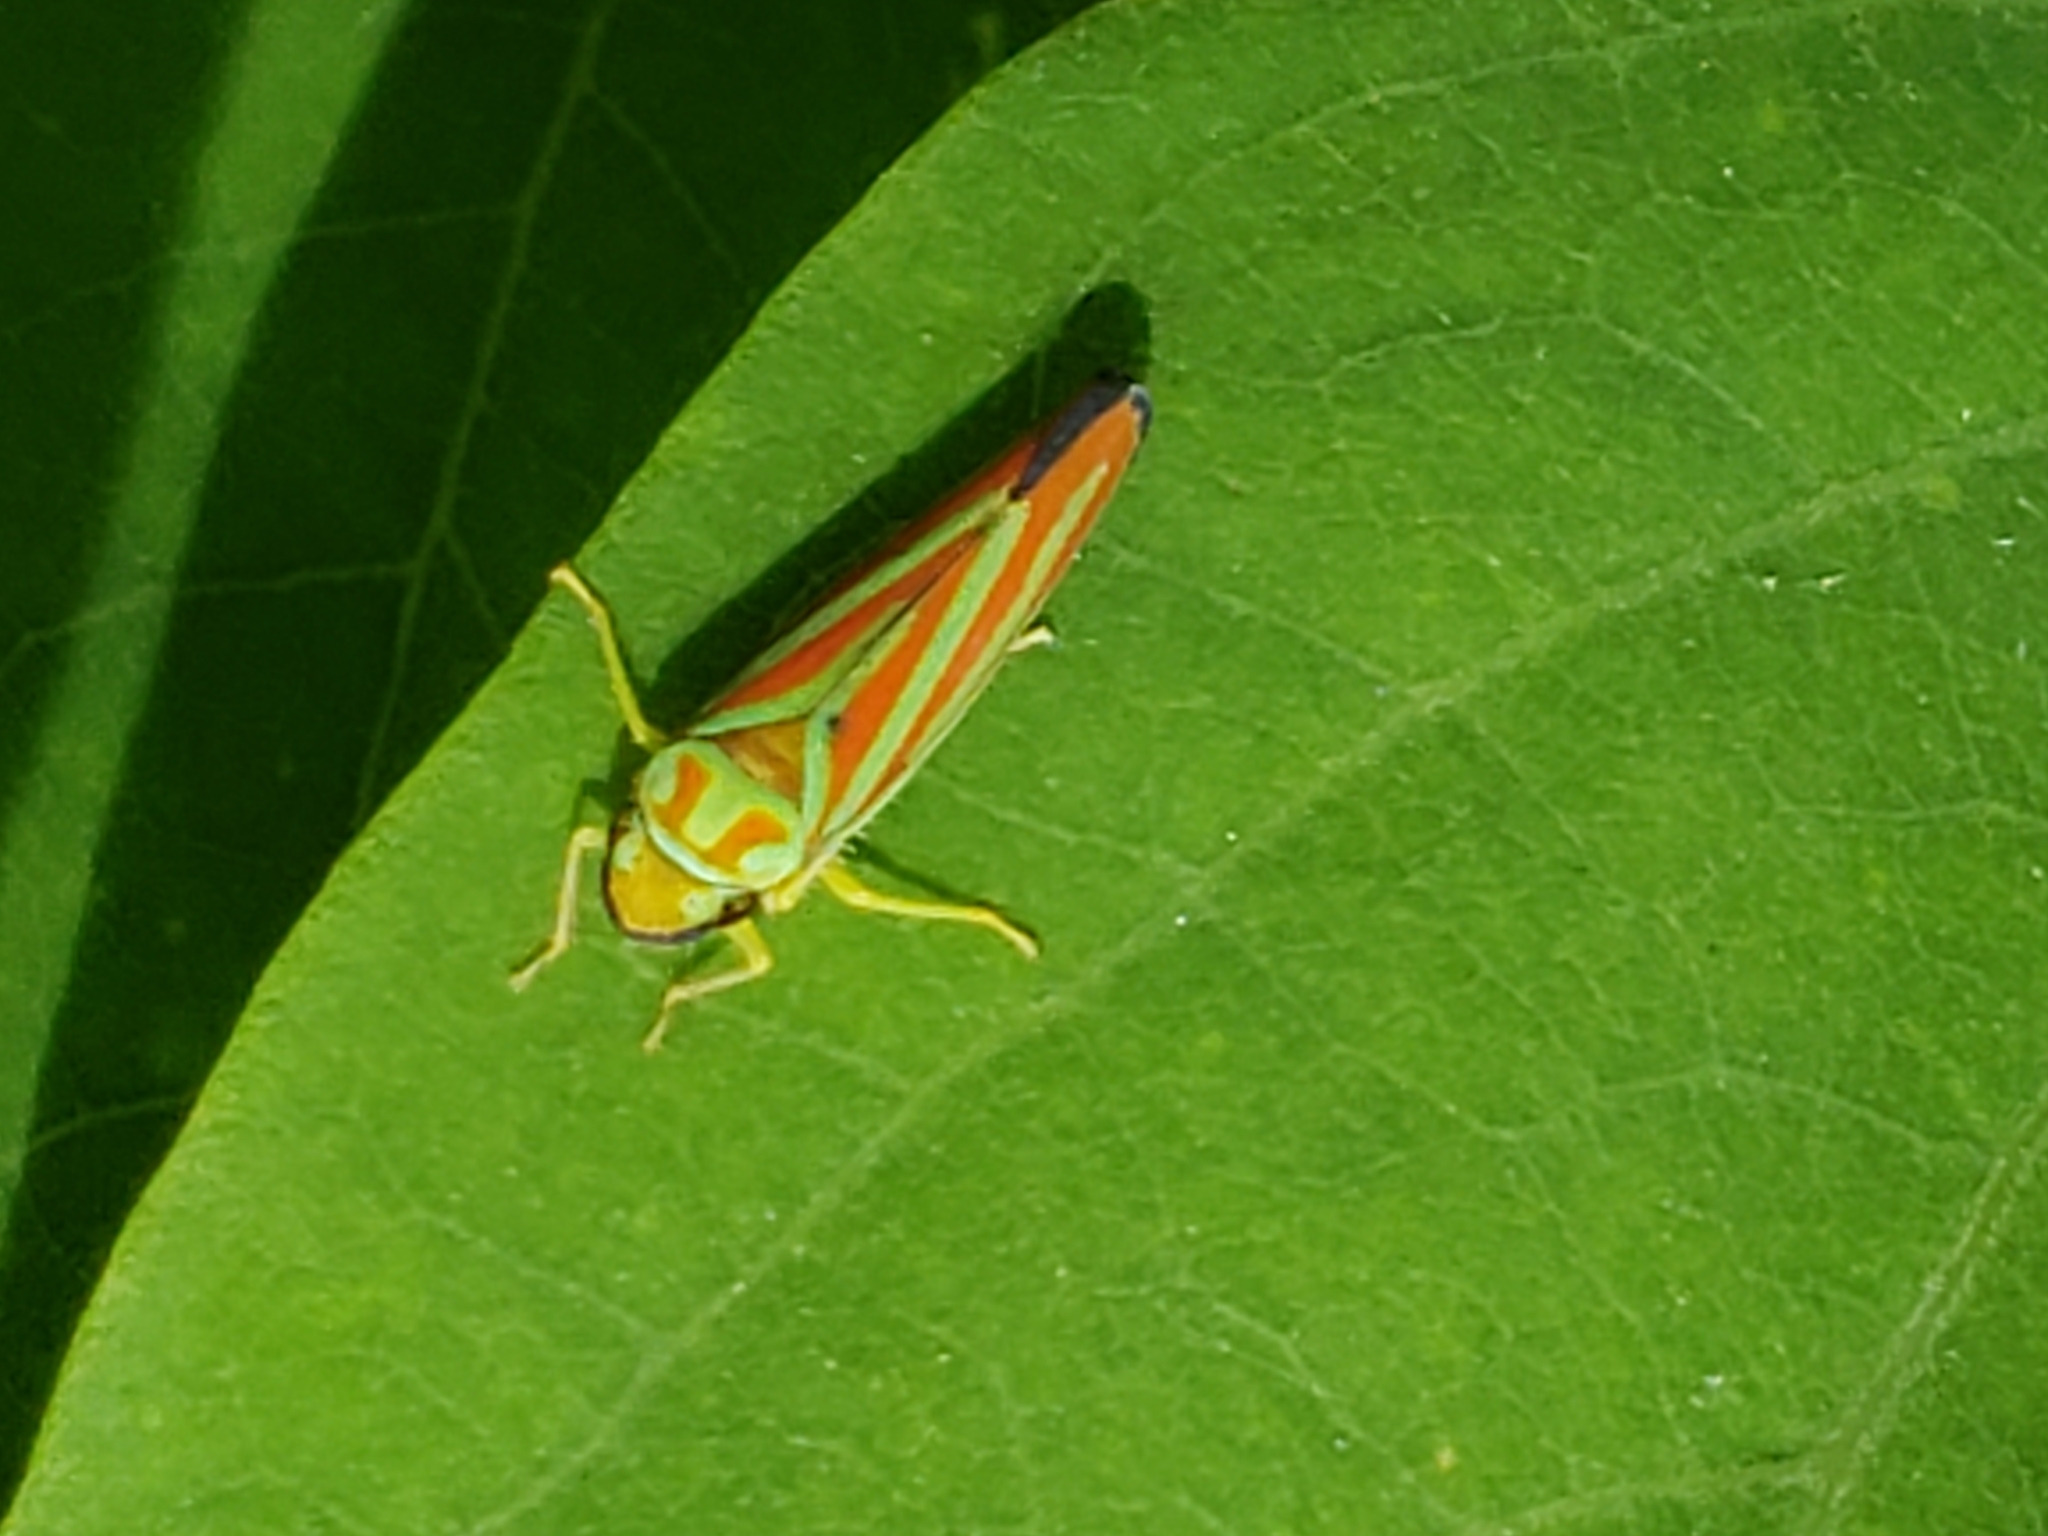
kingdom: Animalia
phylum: Arthropoda
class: Insecta
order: Hemiptera
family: Cicadellidae
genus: Graphocephala
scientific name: Graphocephala coccinea
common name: Candy-striped leafhopper
